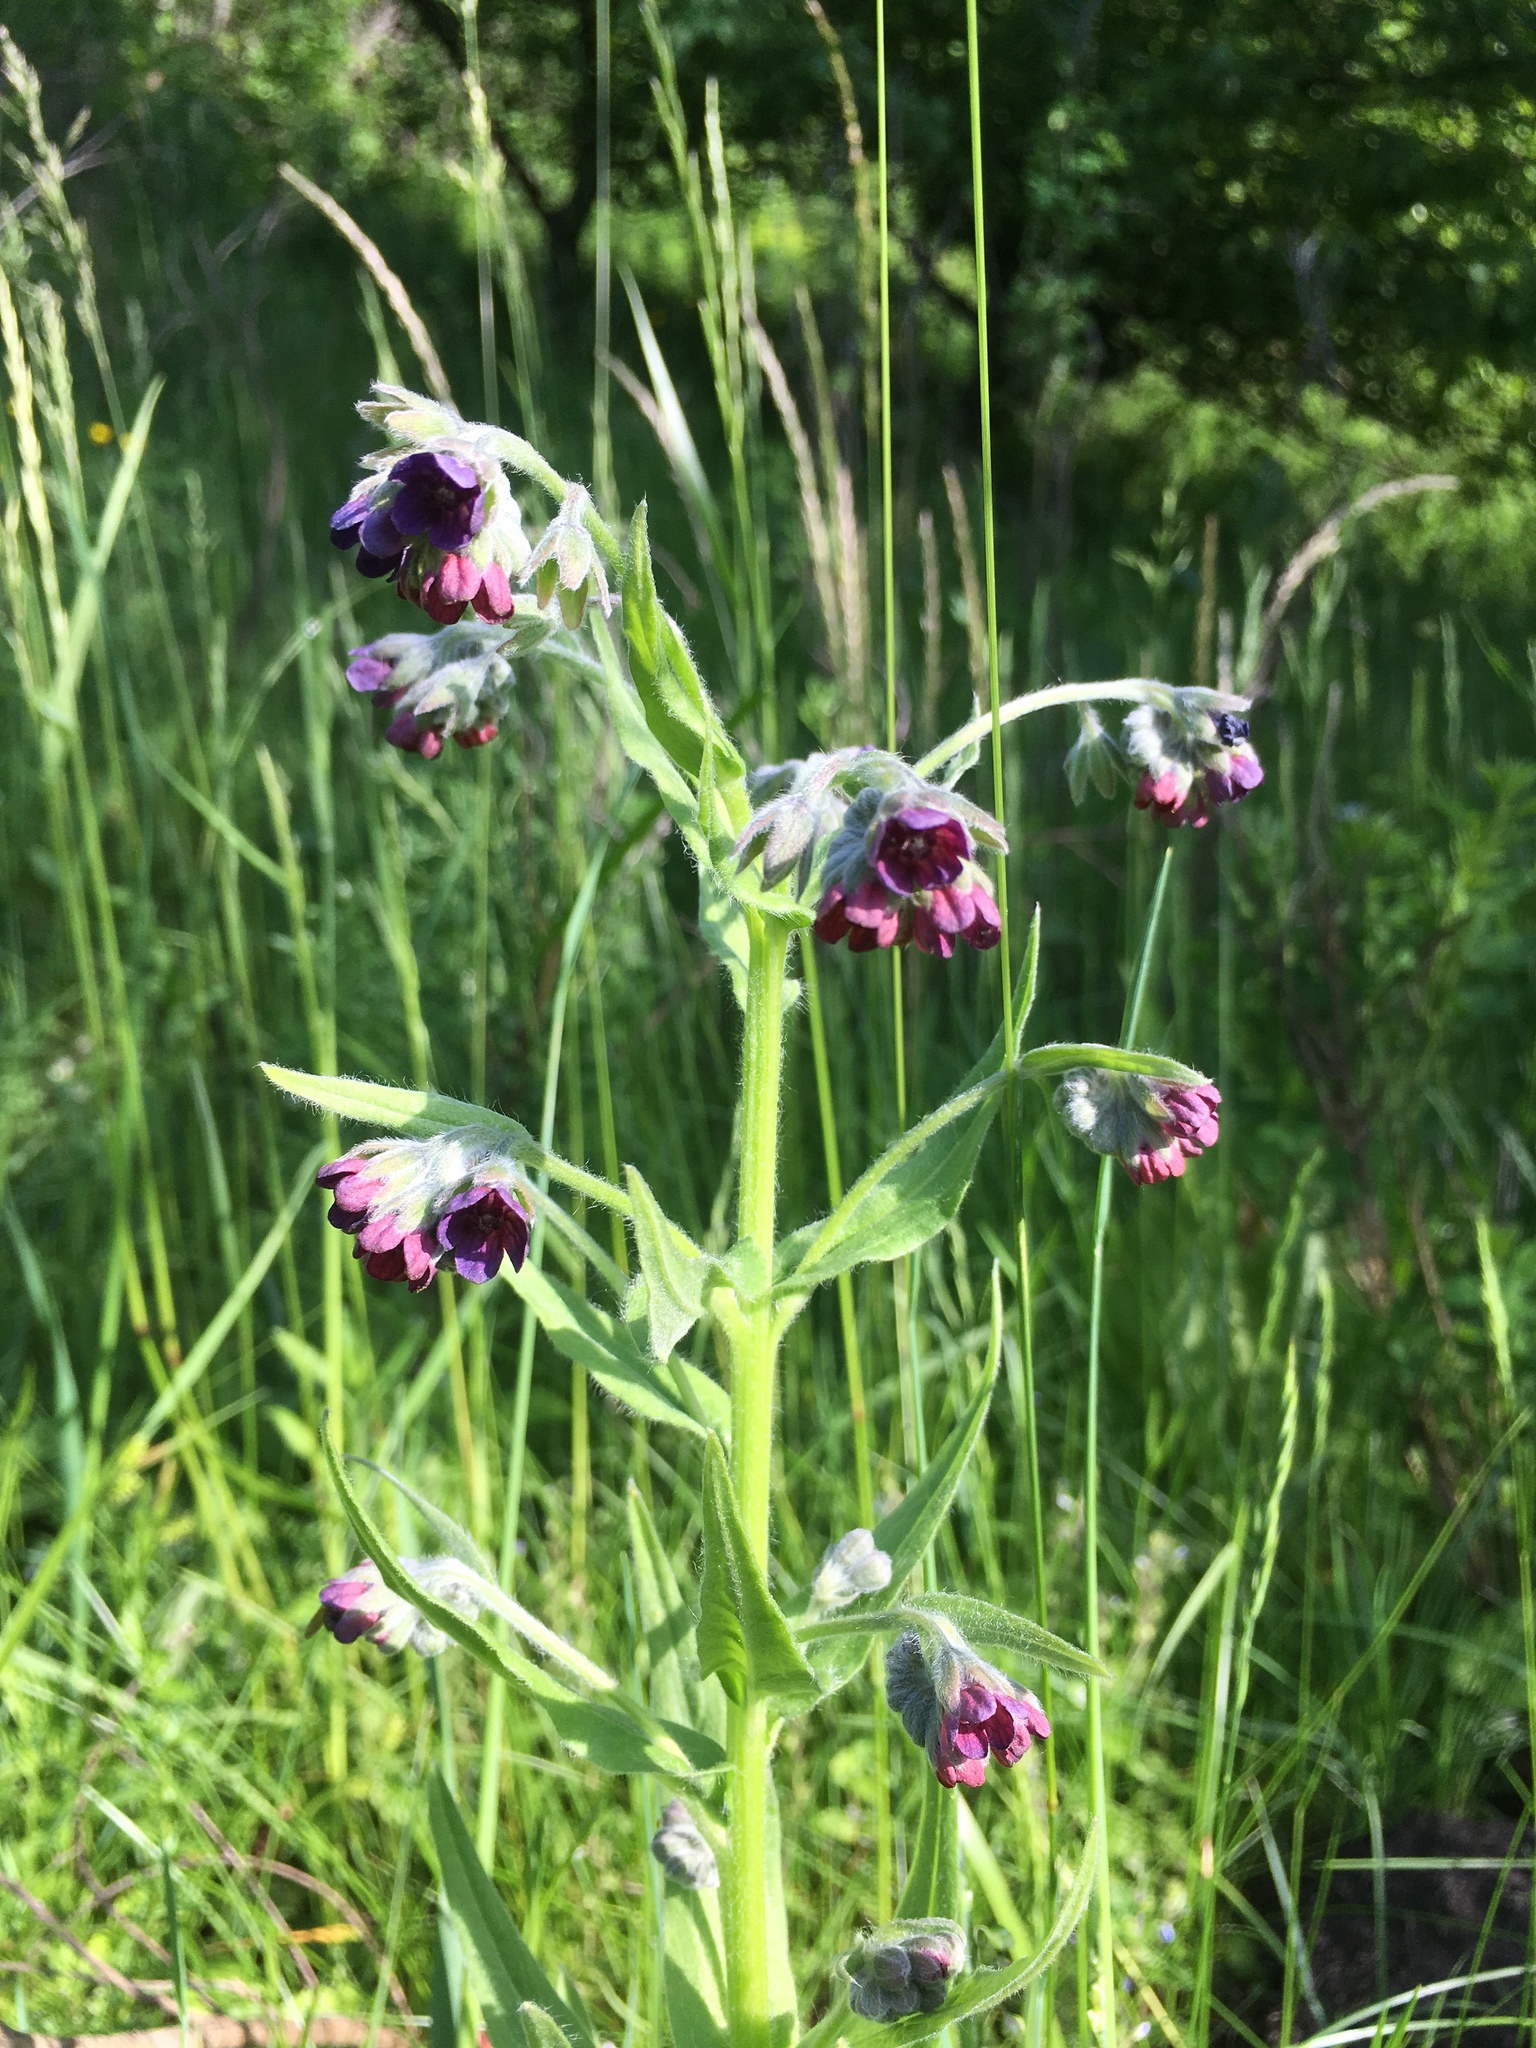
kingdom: Plantae
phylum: Tracheophyta
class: Magnoliopsida
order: Boraginales
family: Boraginaceae
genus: Cynoglossum
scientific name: Cynoglossum officinale
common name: Hound's-tongue
